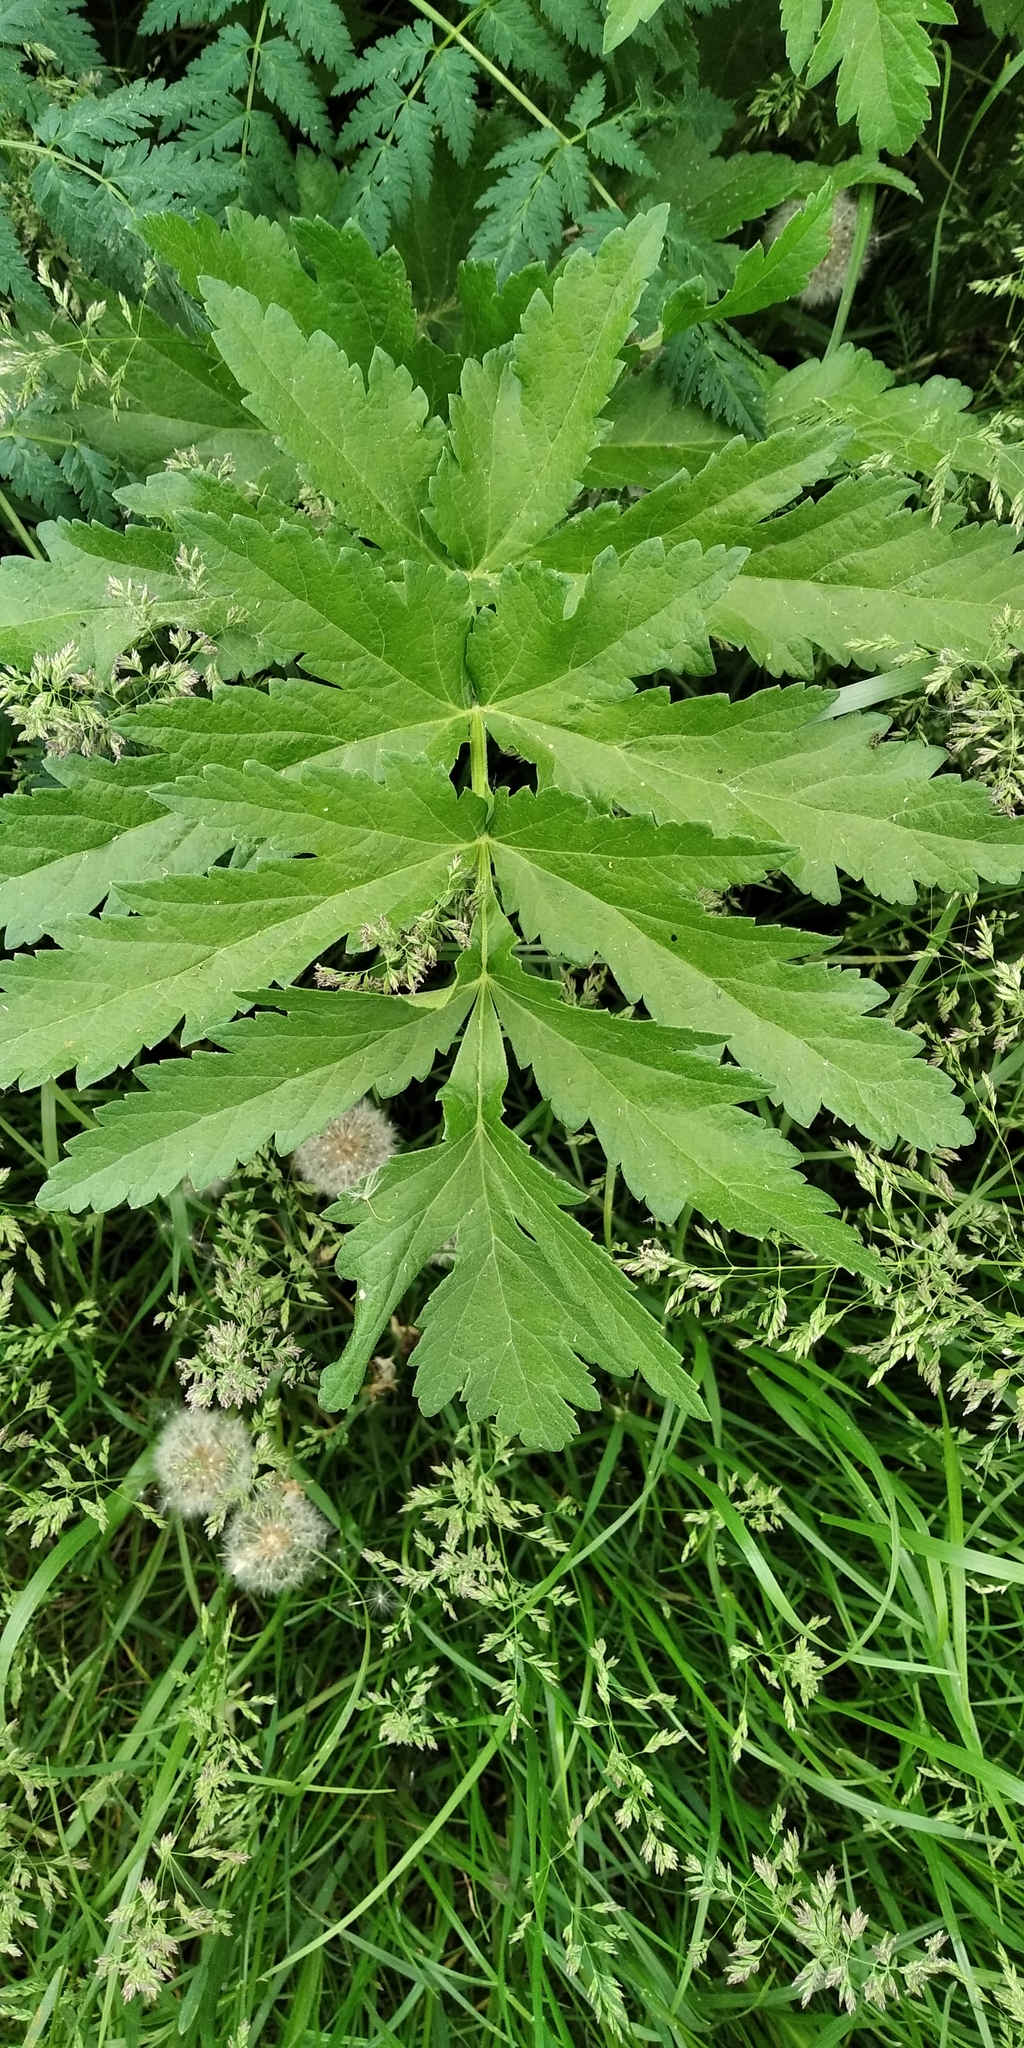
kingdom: Plantae
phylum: Tracheophyta
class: Magnoliopsida
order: Apiales
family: Apiaceae
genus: Pastinaca
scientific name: Pastinaca sativa
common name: Wild parsnip
